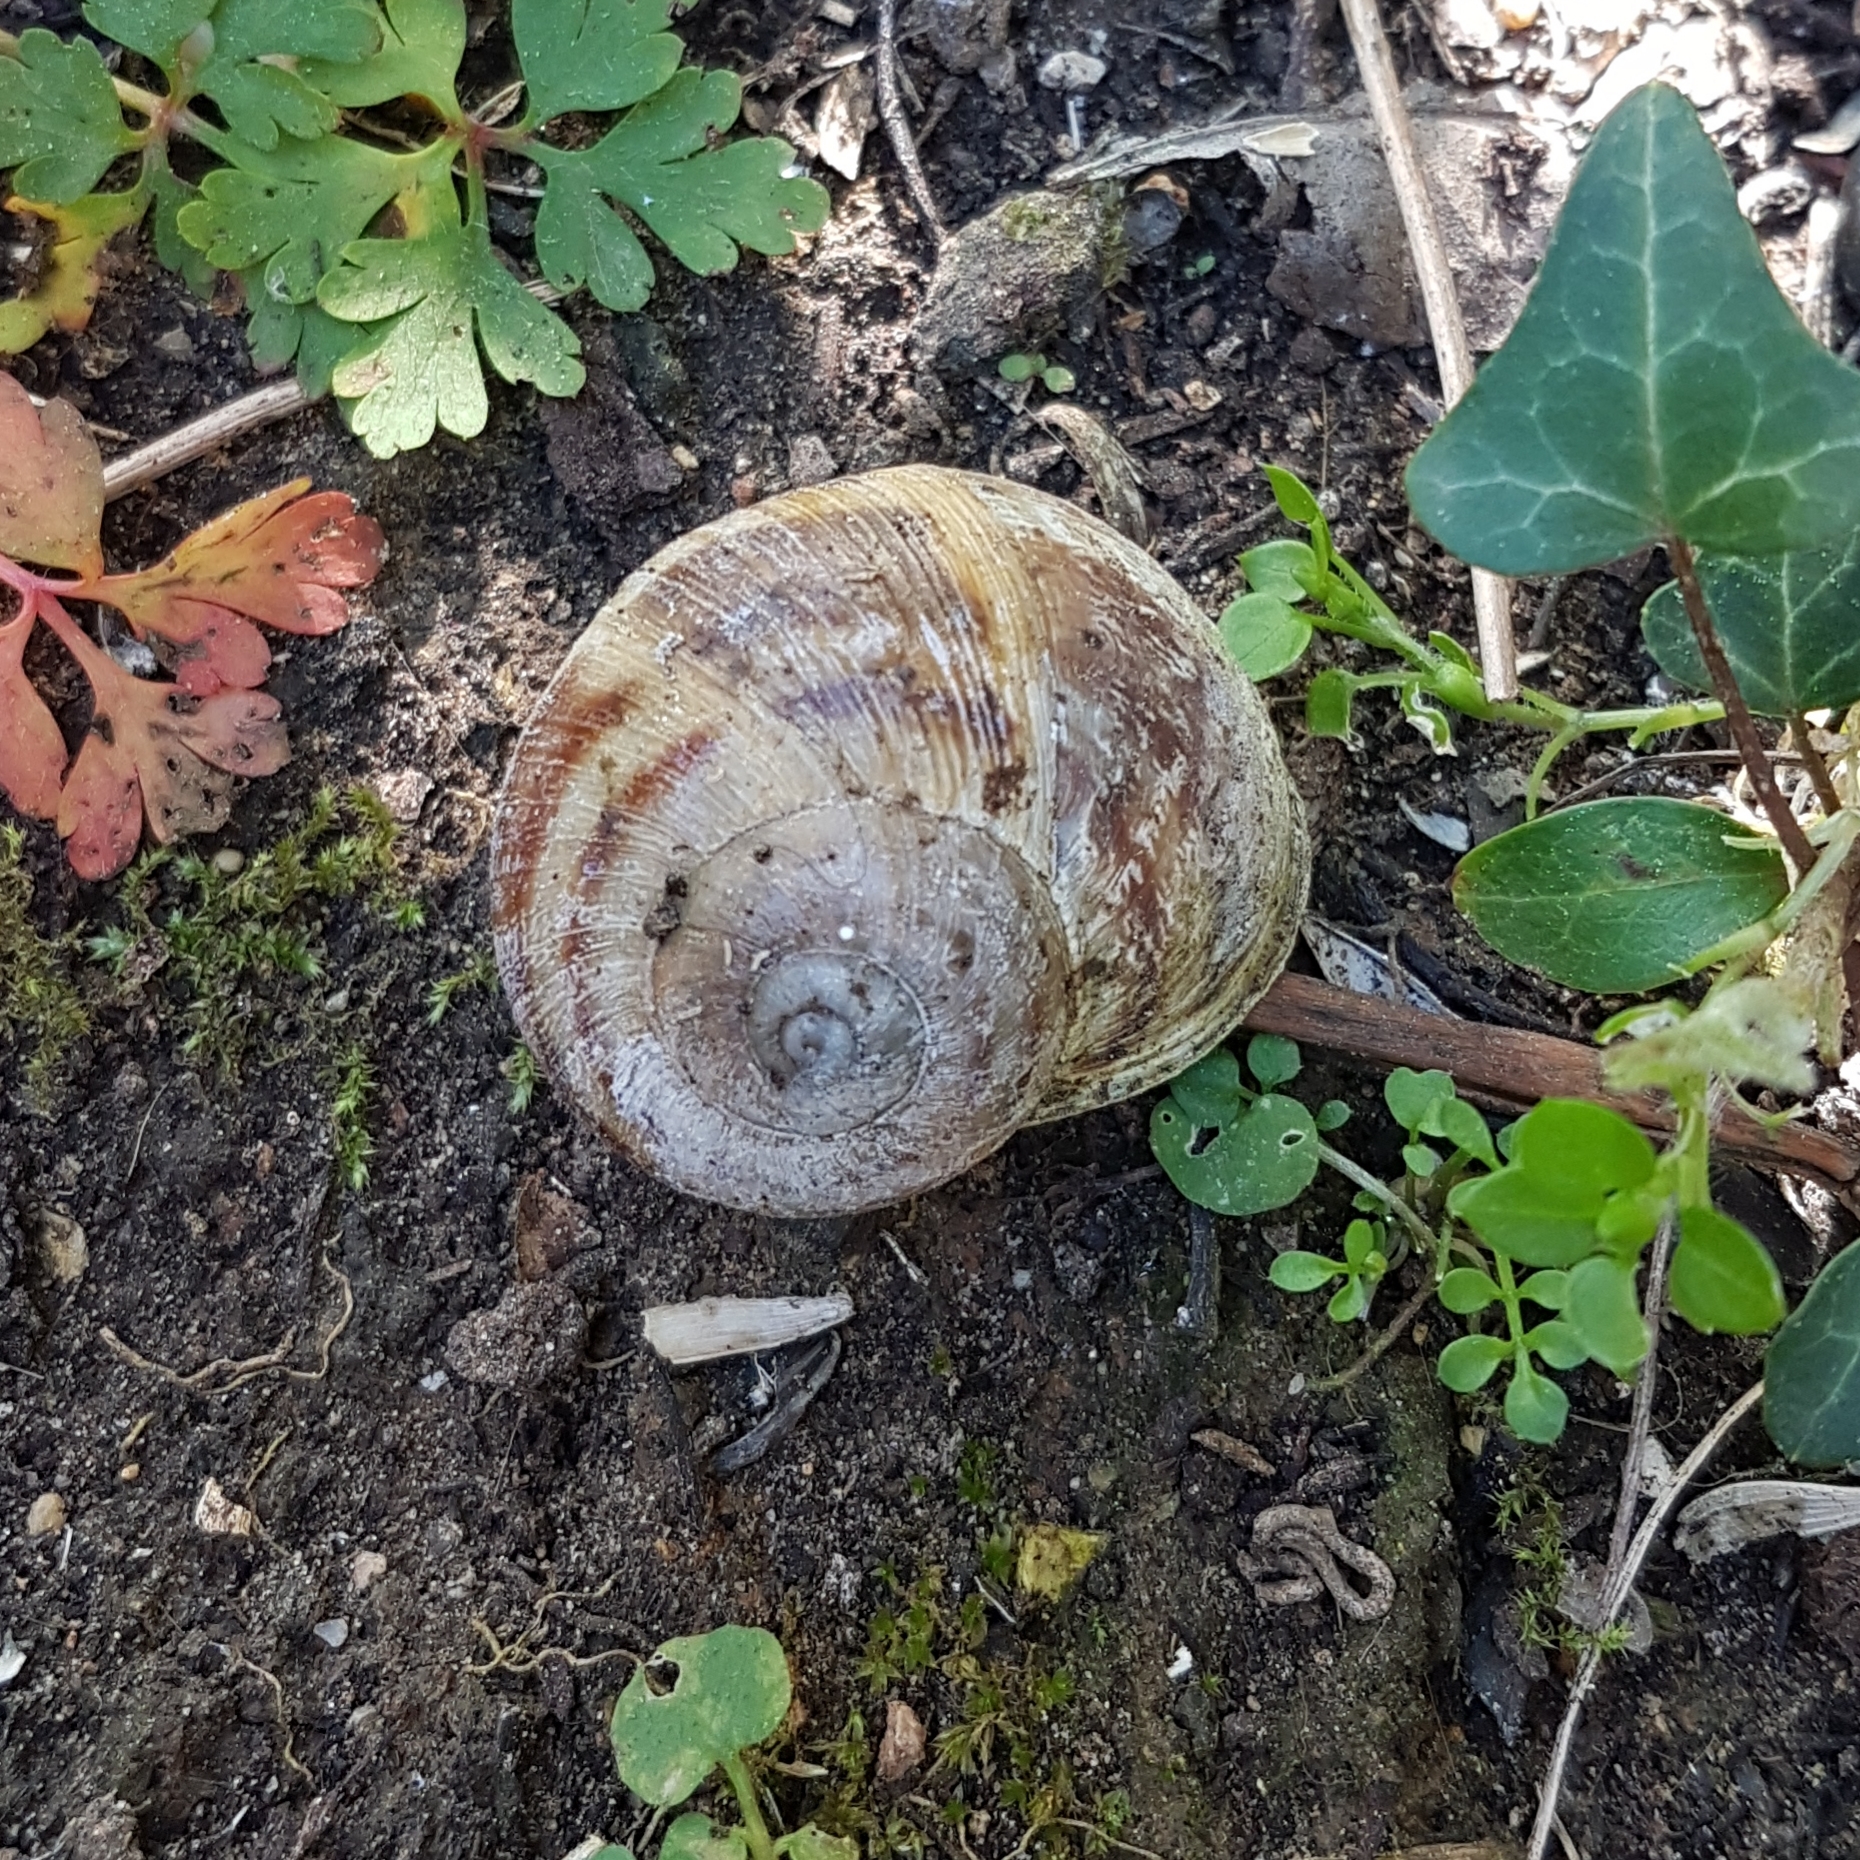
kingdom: Animalia
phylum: Mollusca
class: Gastropoda
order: Stylommatophora
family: Helicidae
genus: Cornu
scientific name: Cornu aspersum
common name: Brown garden snail
